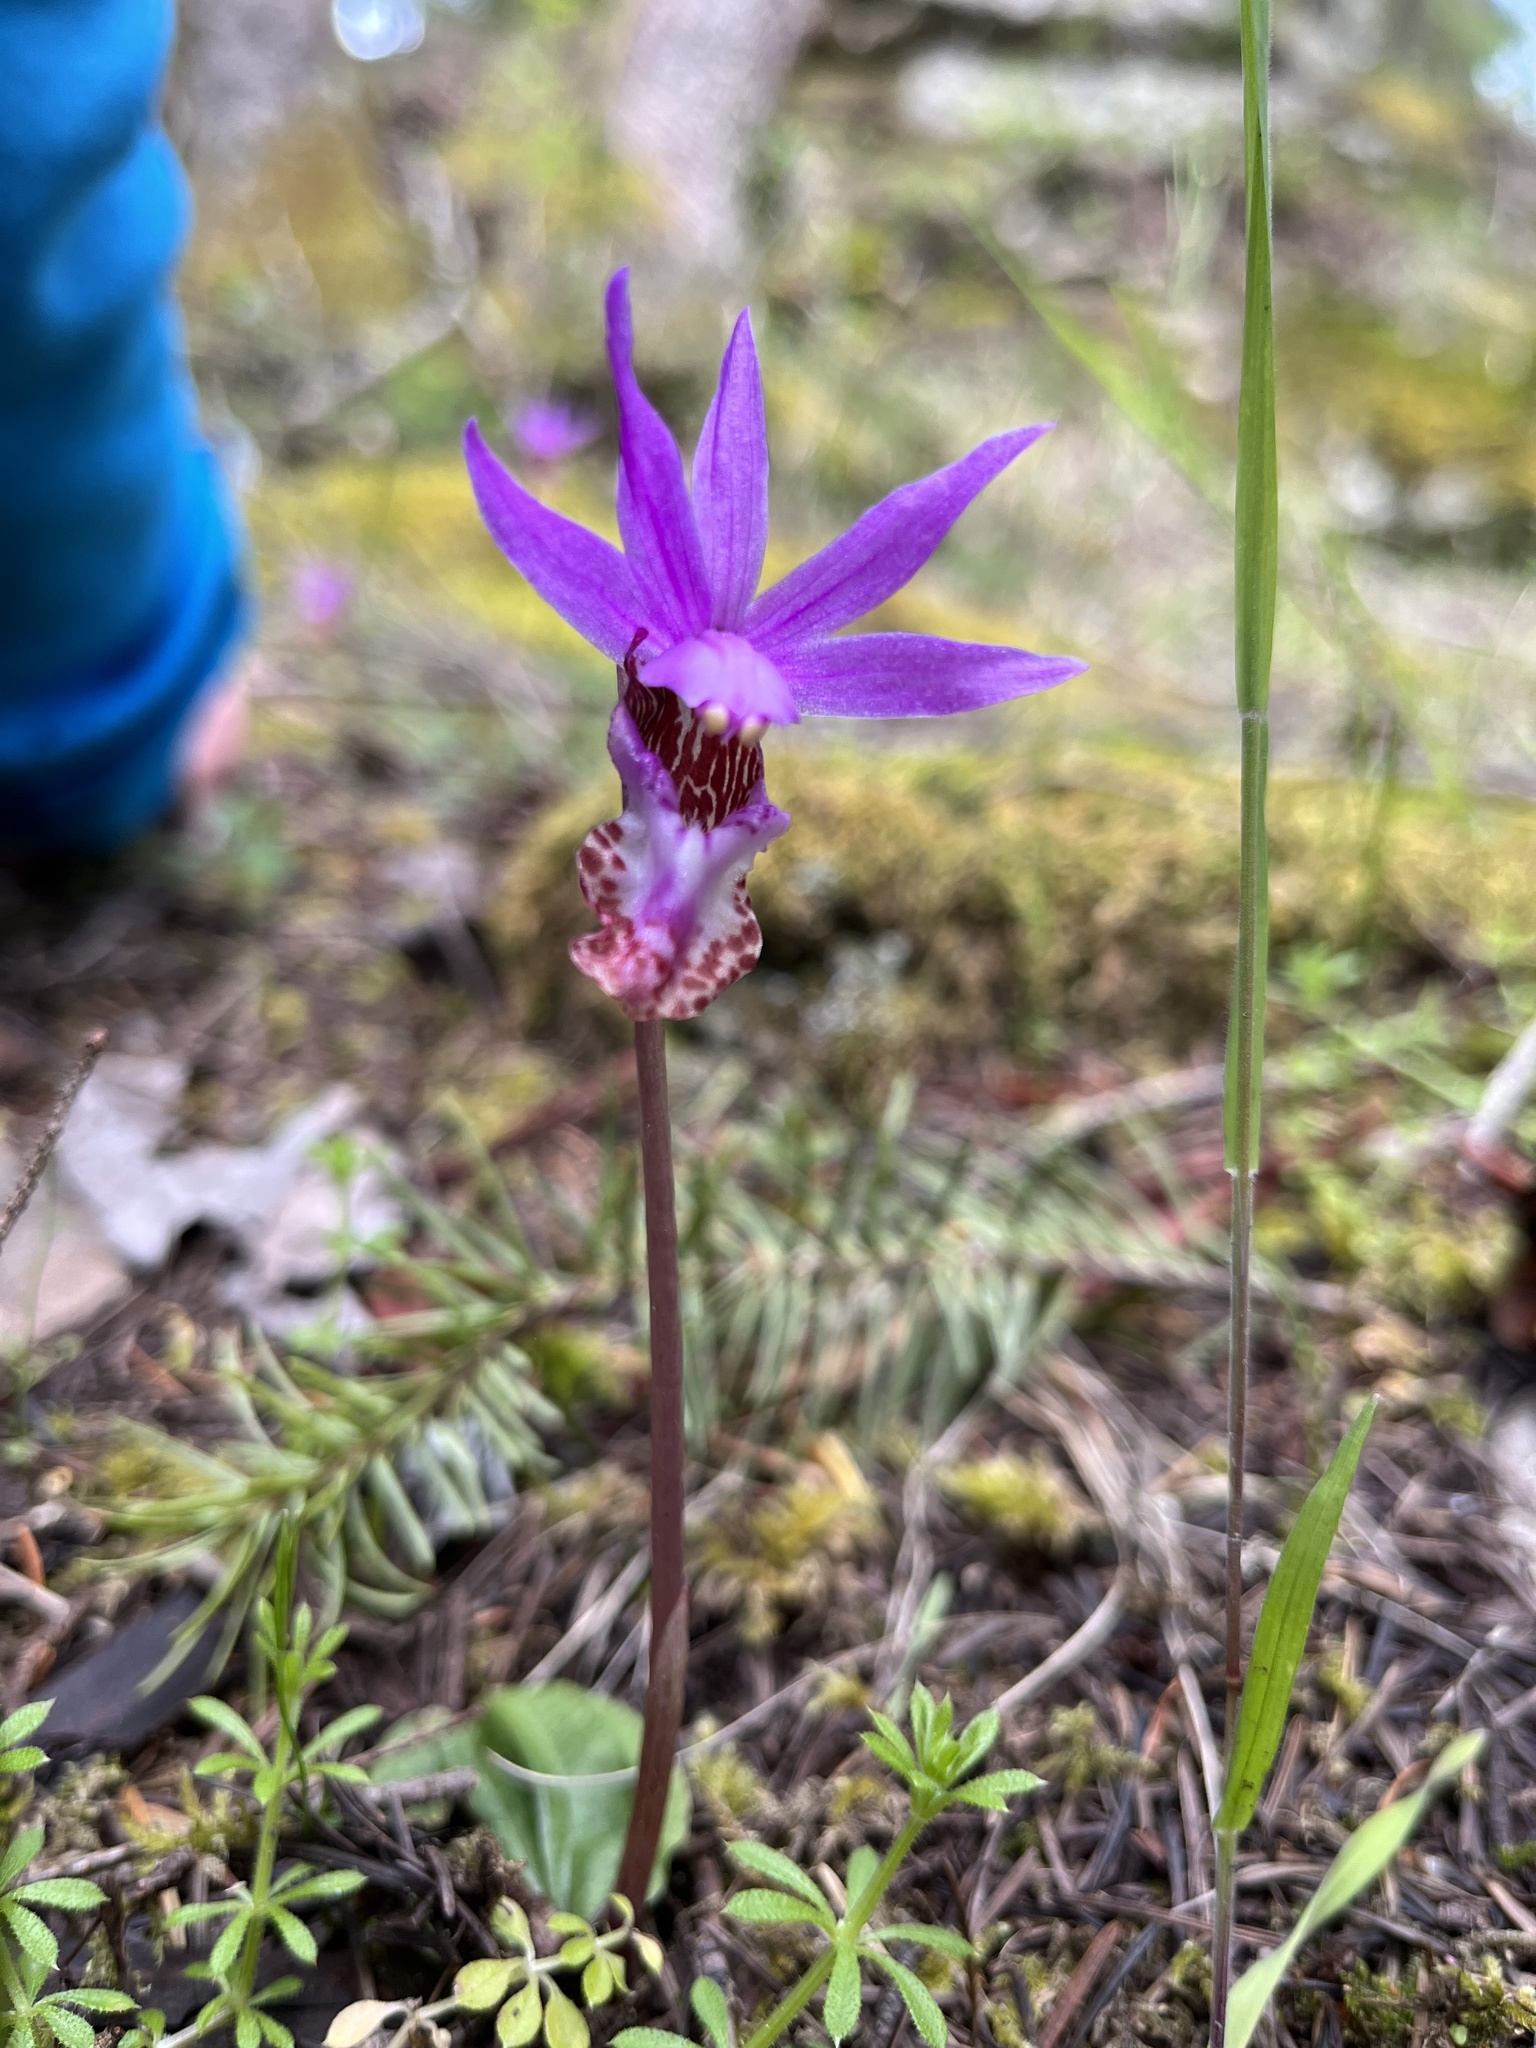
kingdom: Plantae
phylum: Tracheophyta
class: Liliopsida
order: Asparagales
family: Orchidaceae
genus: Calypso
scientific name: Calypso bulbosa
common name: Calypso
